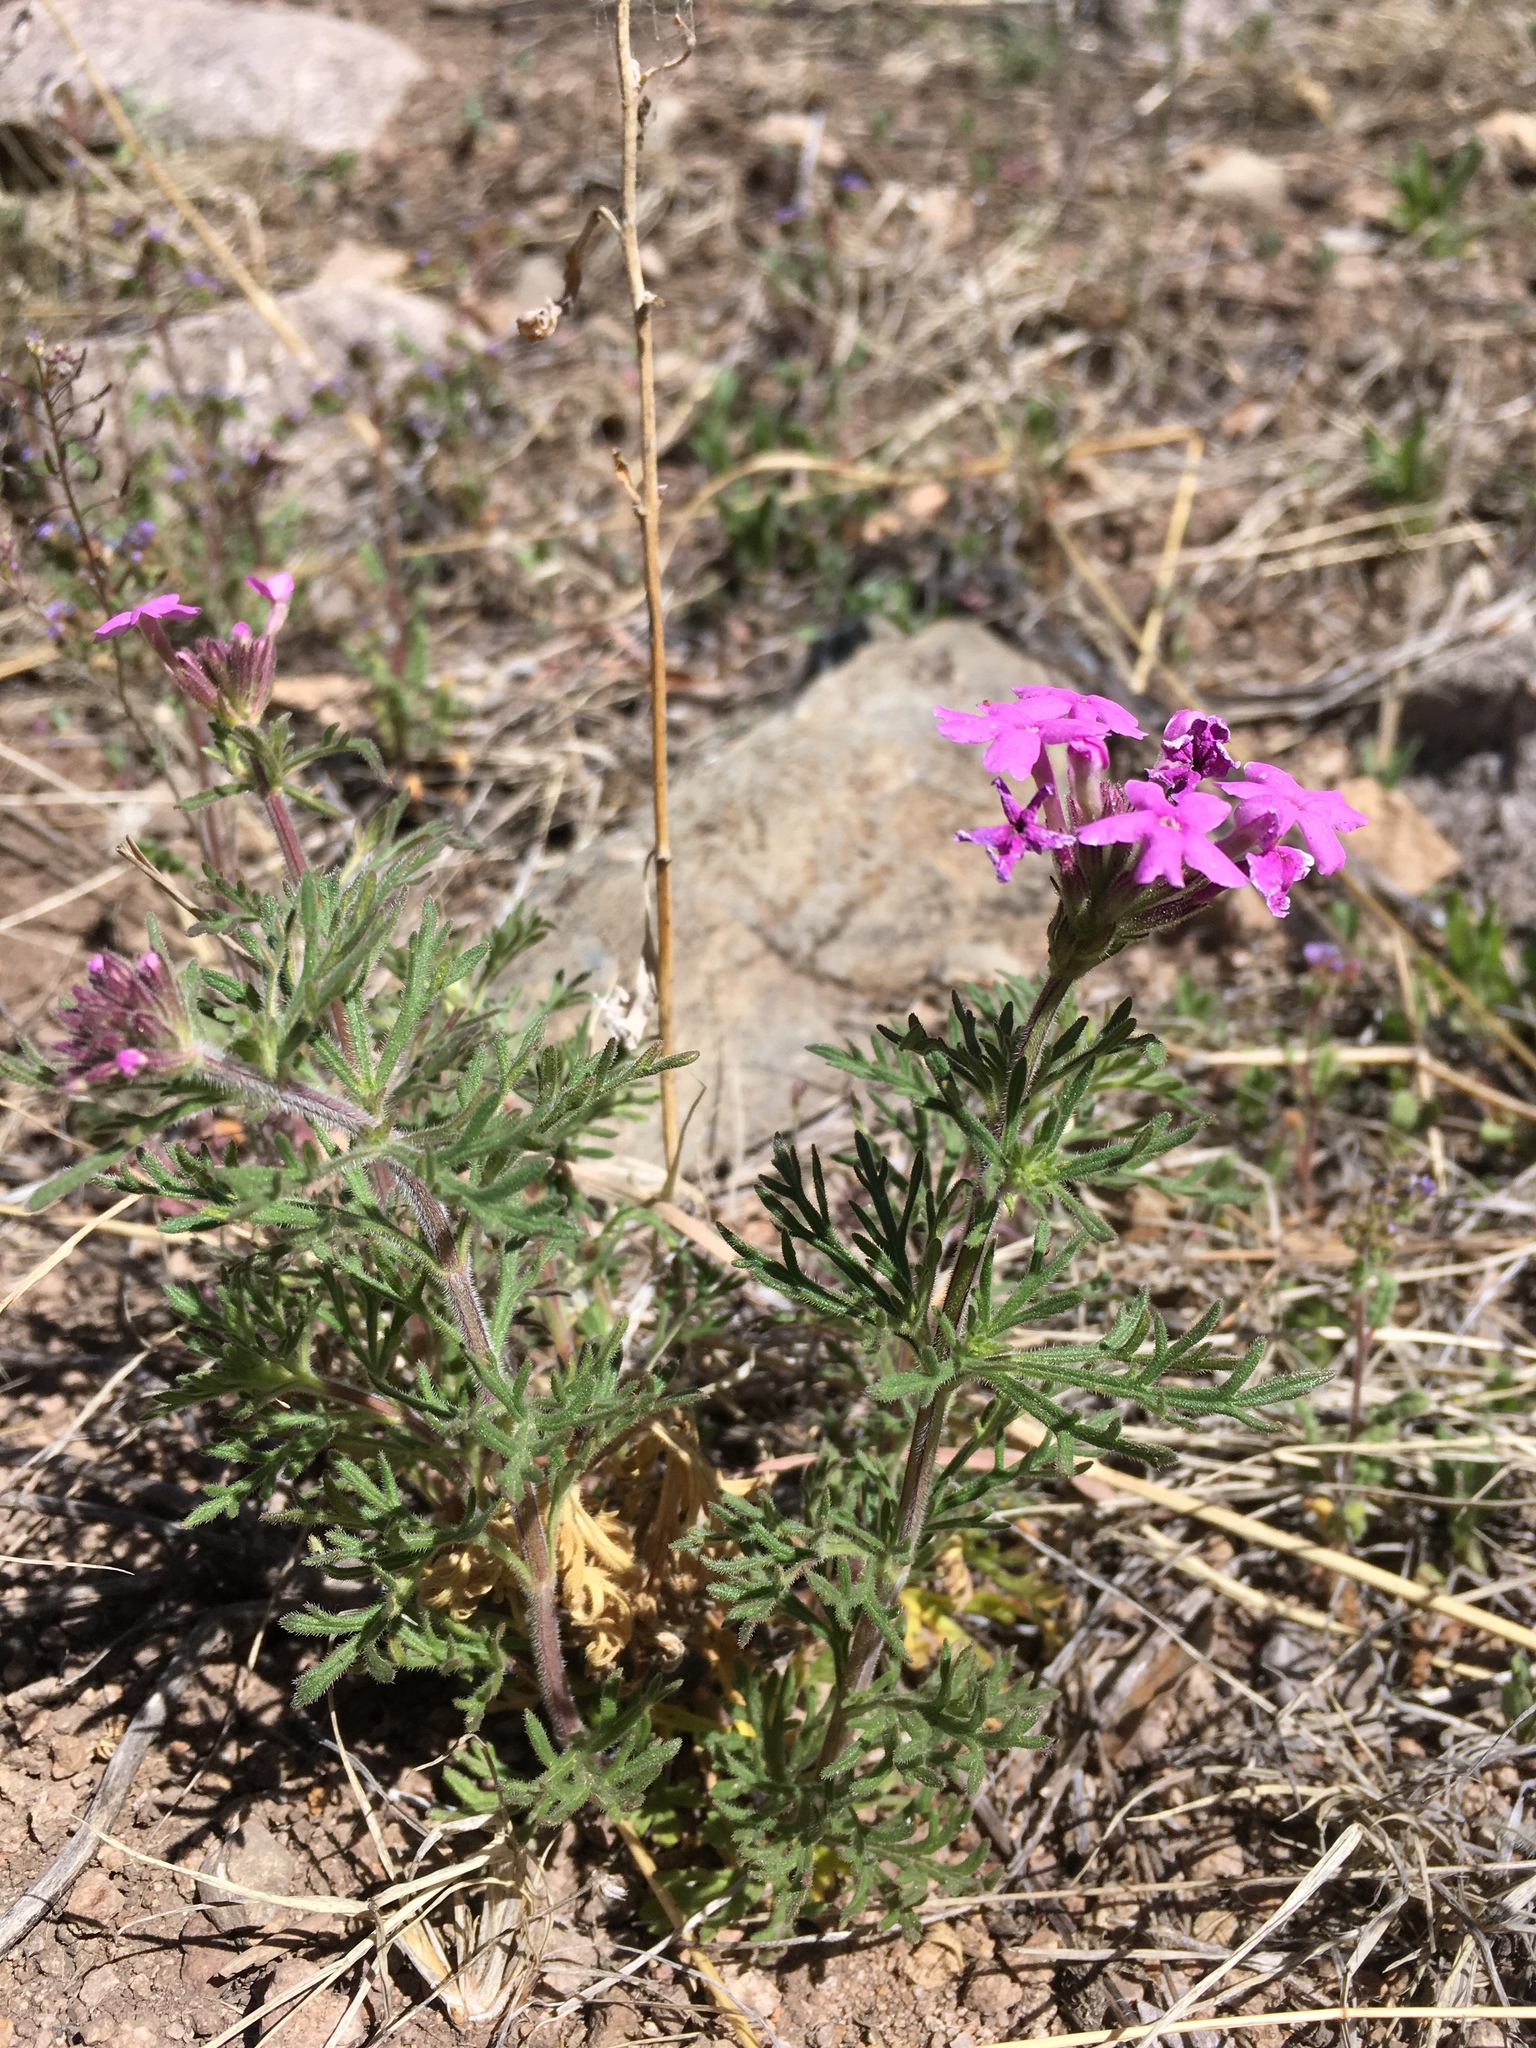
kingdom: Plantae
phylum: Tracheophyta
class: Magnoliopsida
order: Lamiales
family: Verbenaceae
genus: Verbena
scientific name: Verbena bipinnatifida
